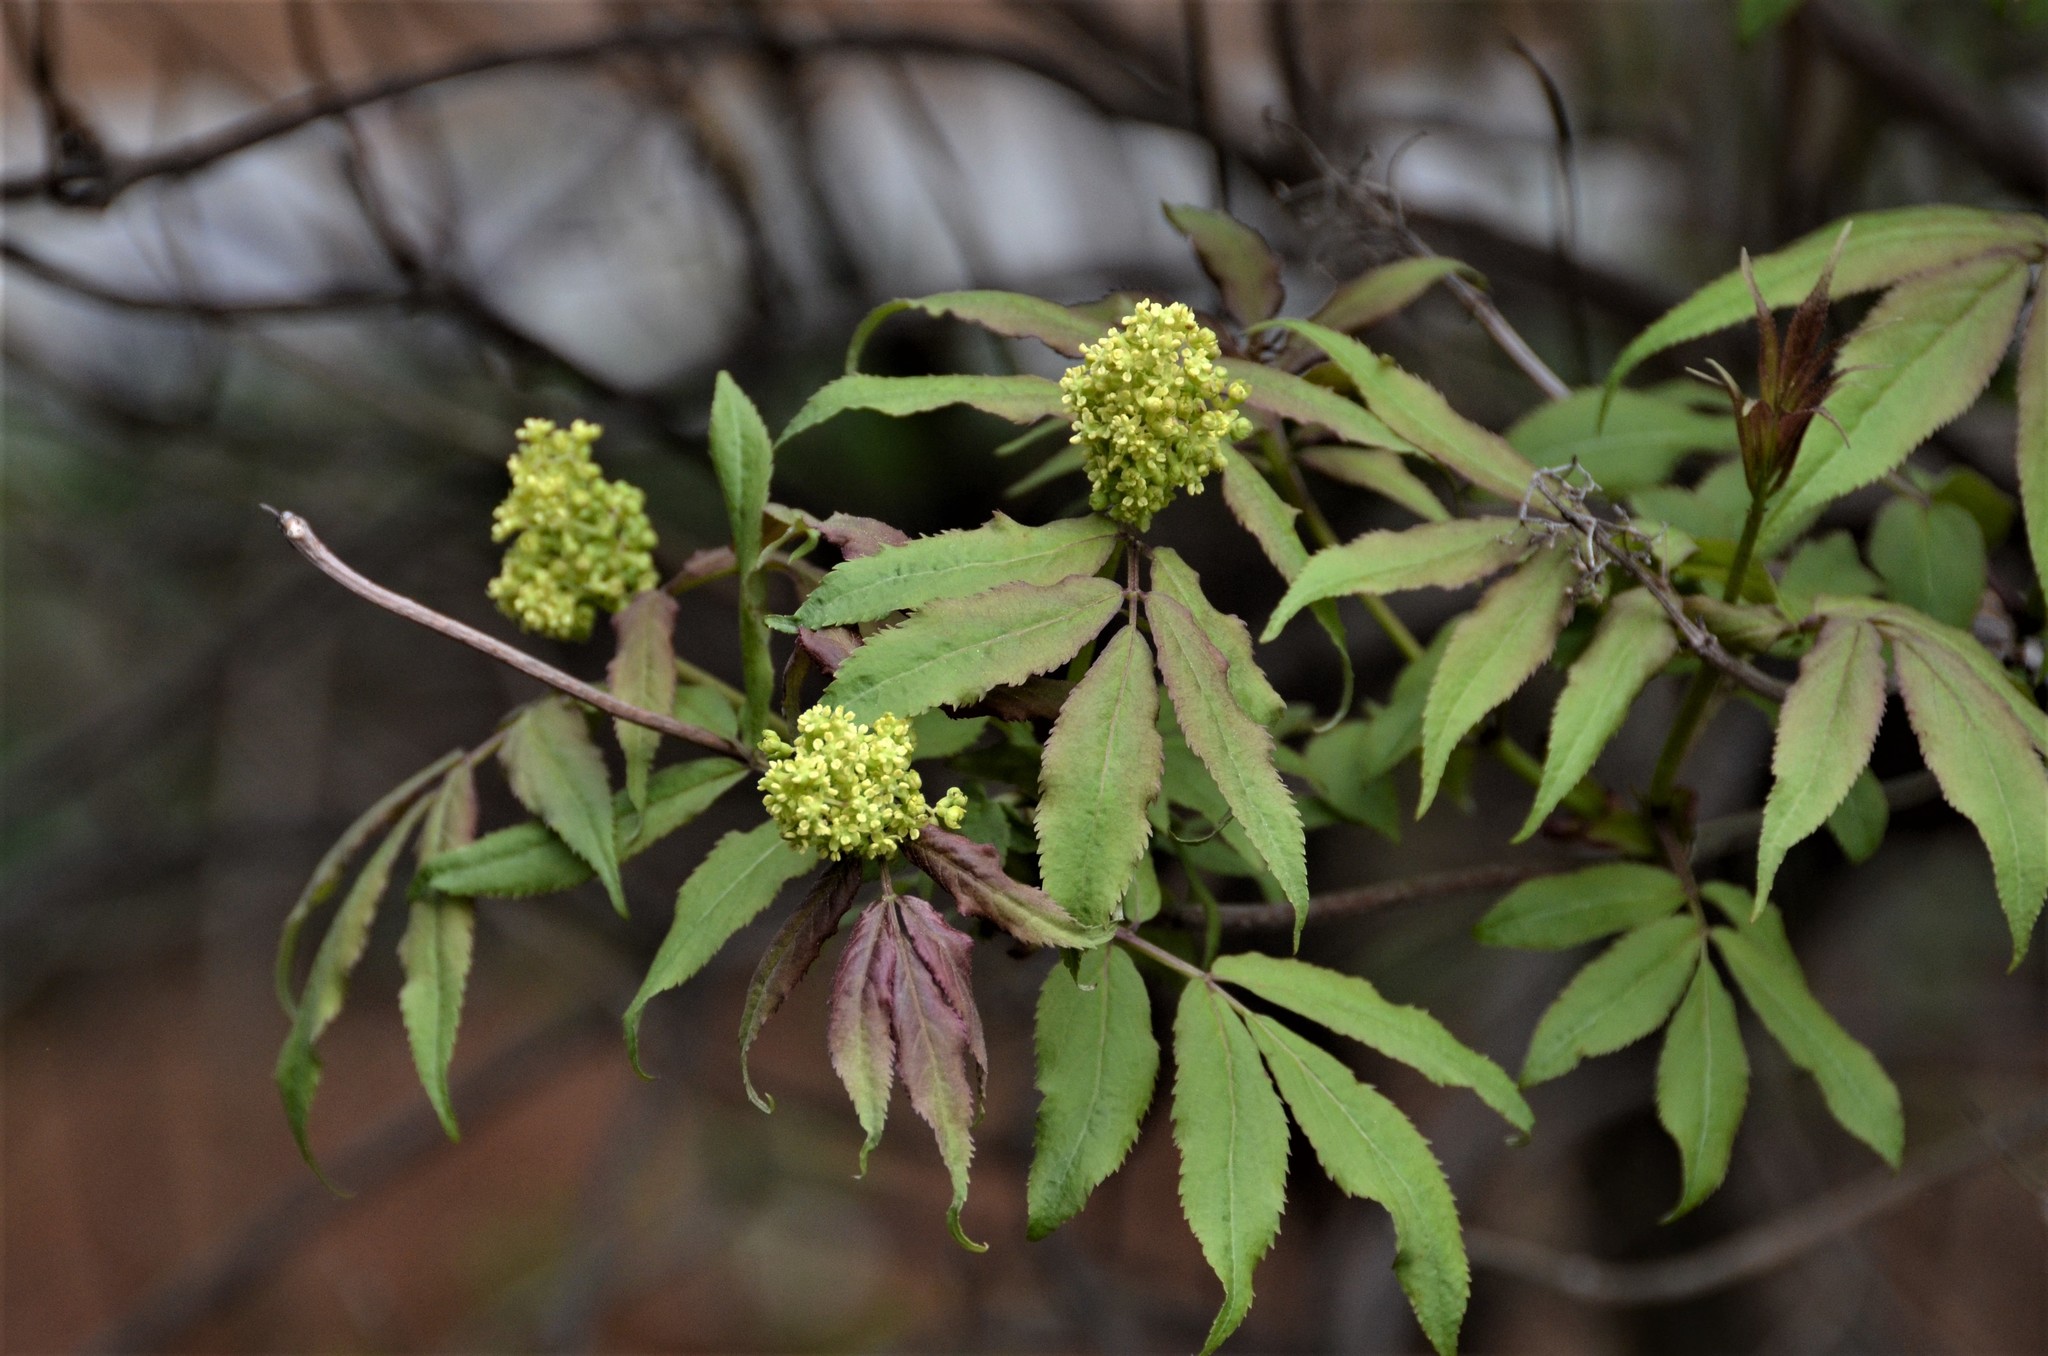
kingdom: Plantae
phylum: Tracheophyta
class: Magnoliopsida
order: Dipsacales
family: Viburnaceae
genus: Sambucus
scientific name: Sambucus racemosa
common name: Red-berried elder
